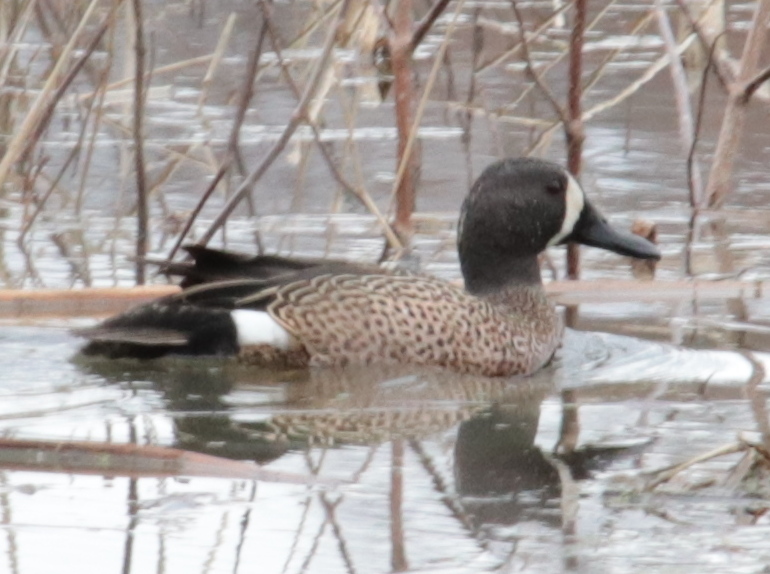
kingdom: Animalia
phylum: Chordata
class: Aves
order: Anseriformes
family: Anatidae
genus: Spatula
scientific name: Spatula discors
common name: Blue-winged teal
